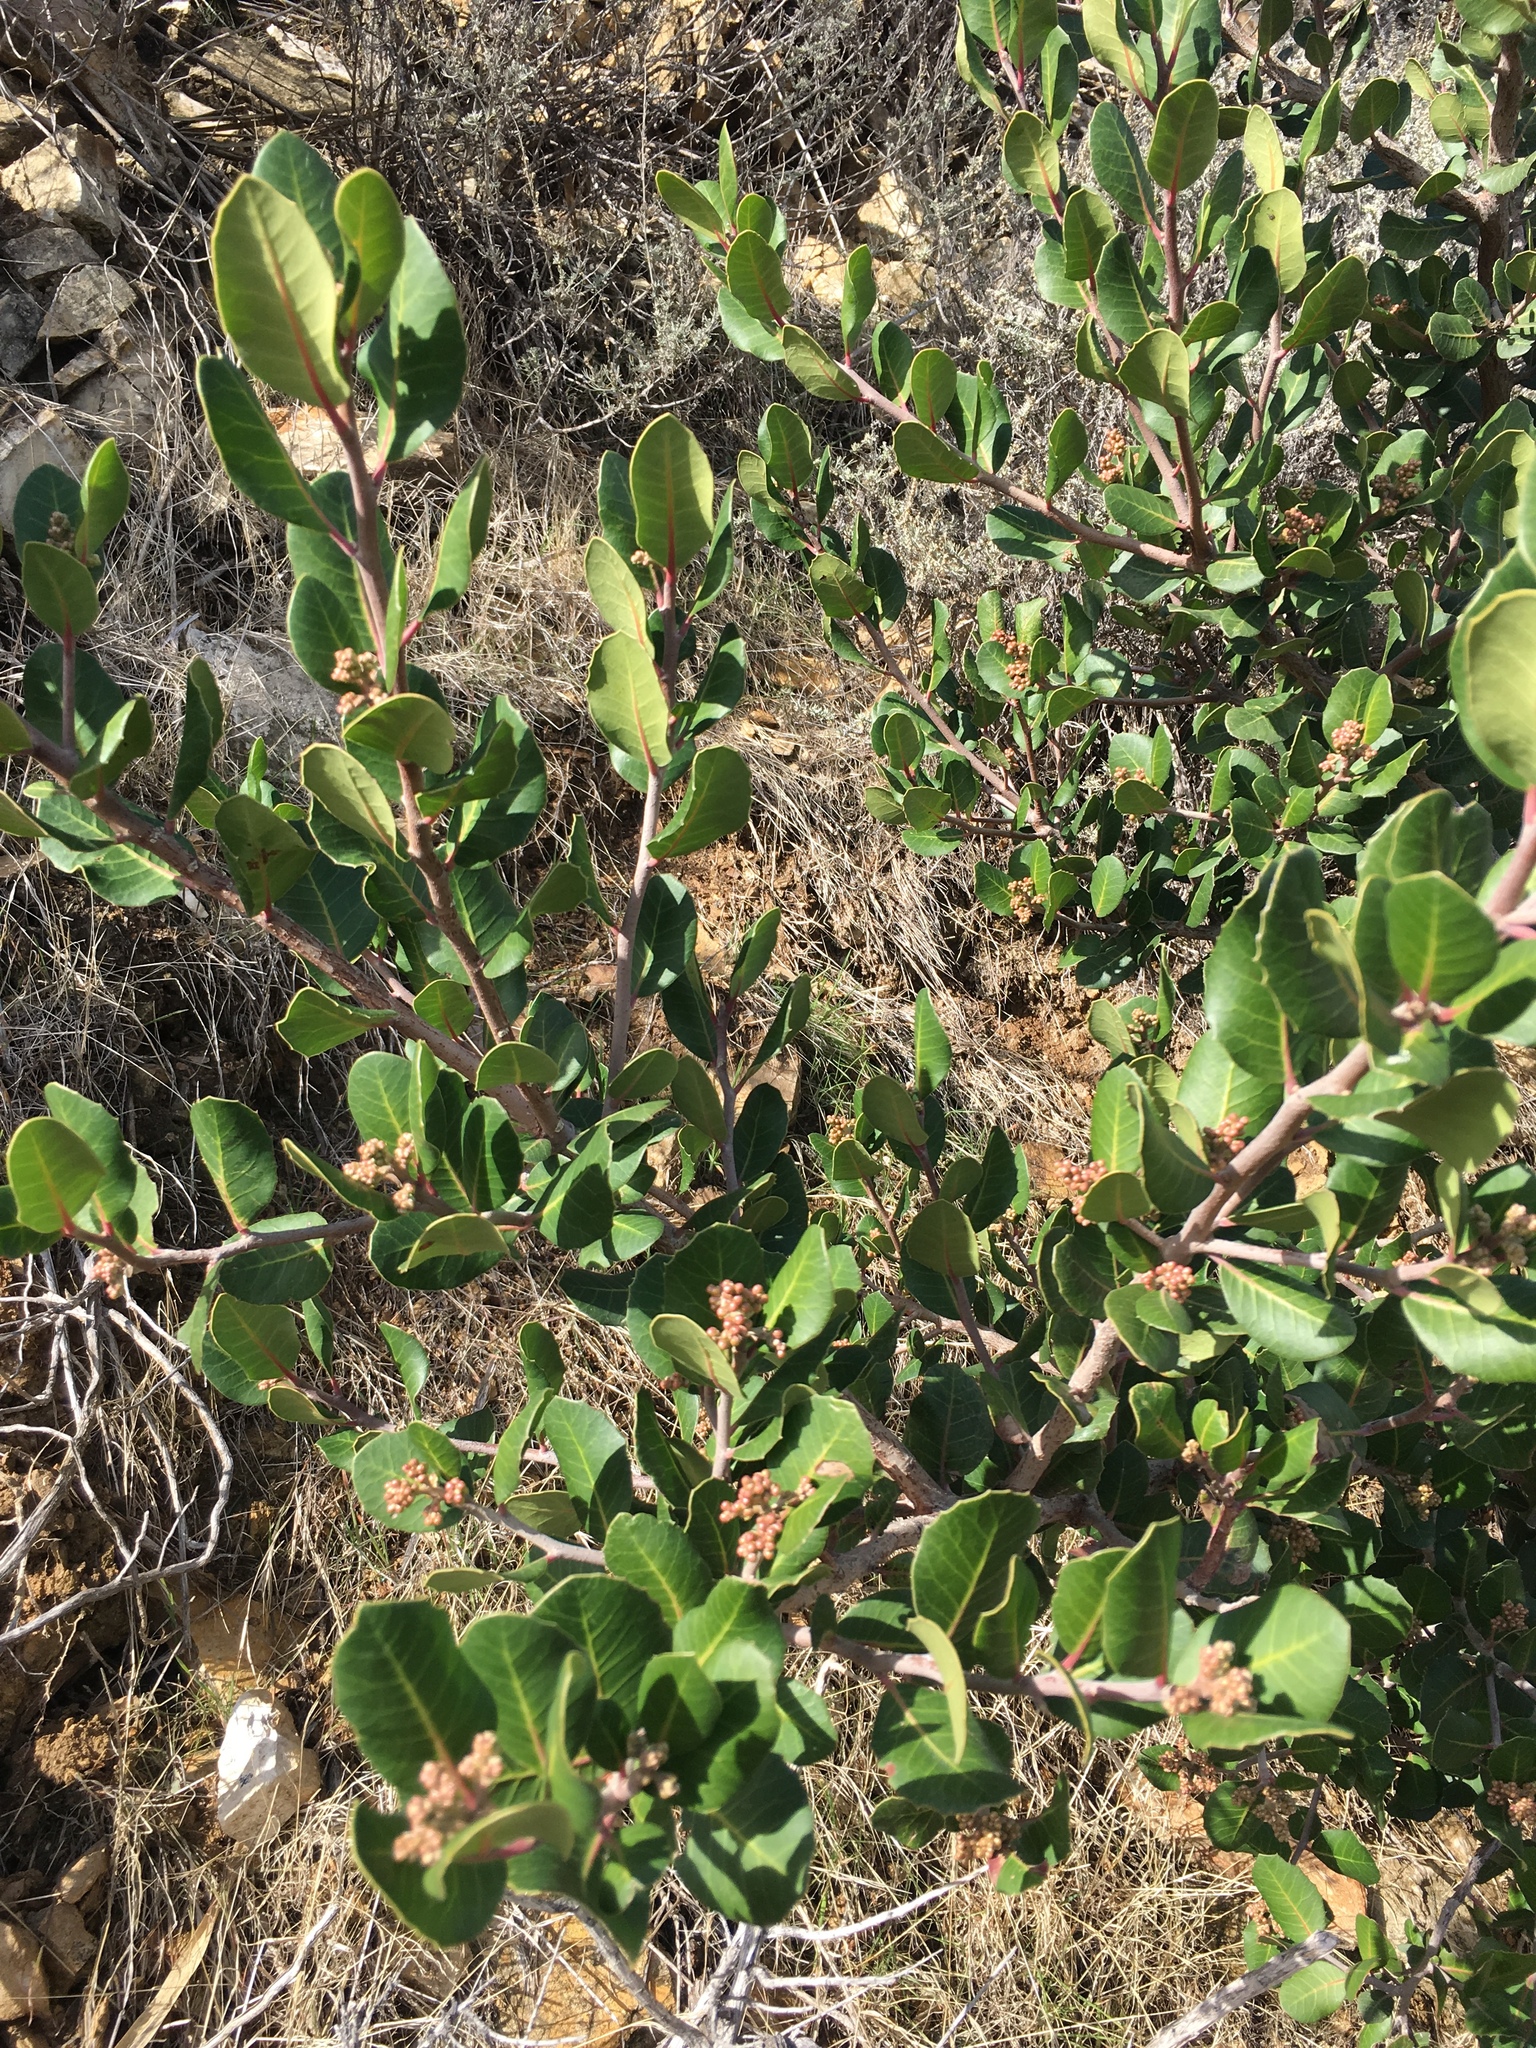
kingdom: Plantae
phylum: Tracheophyta
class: Magnoliopsida
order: Sapindales
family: Anacardiaceae
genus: Rhus
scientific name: Rhus integrifolia
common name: Lemonade sumac
